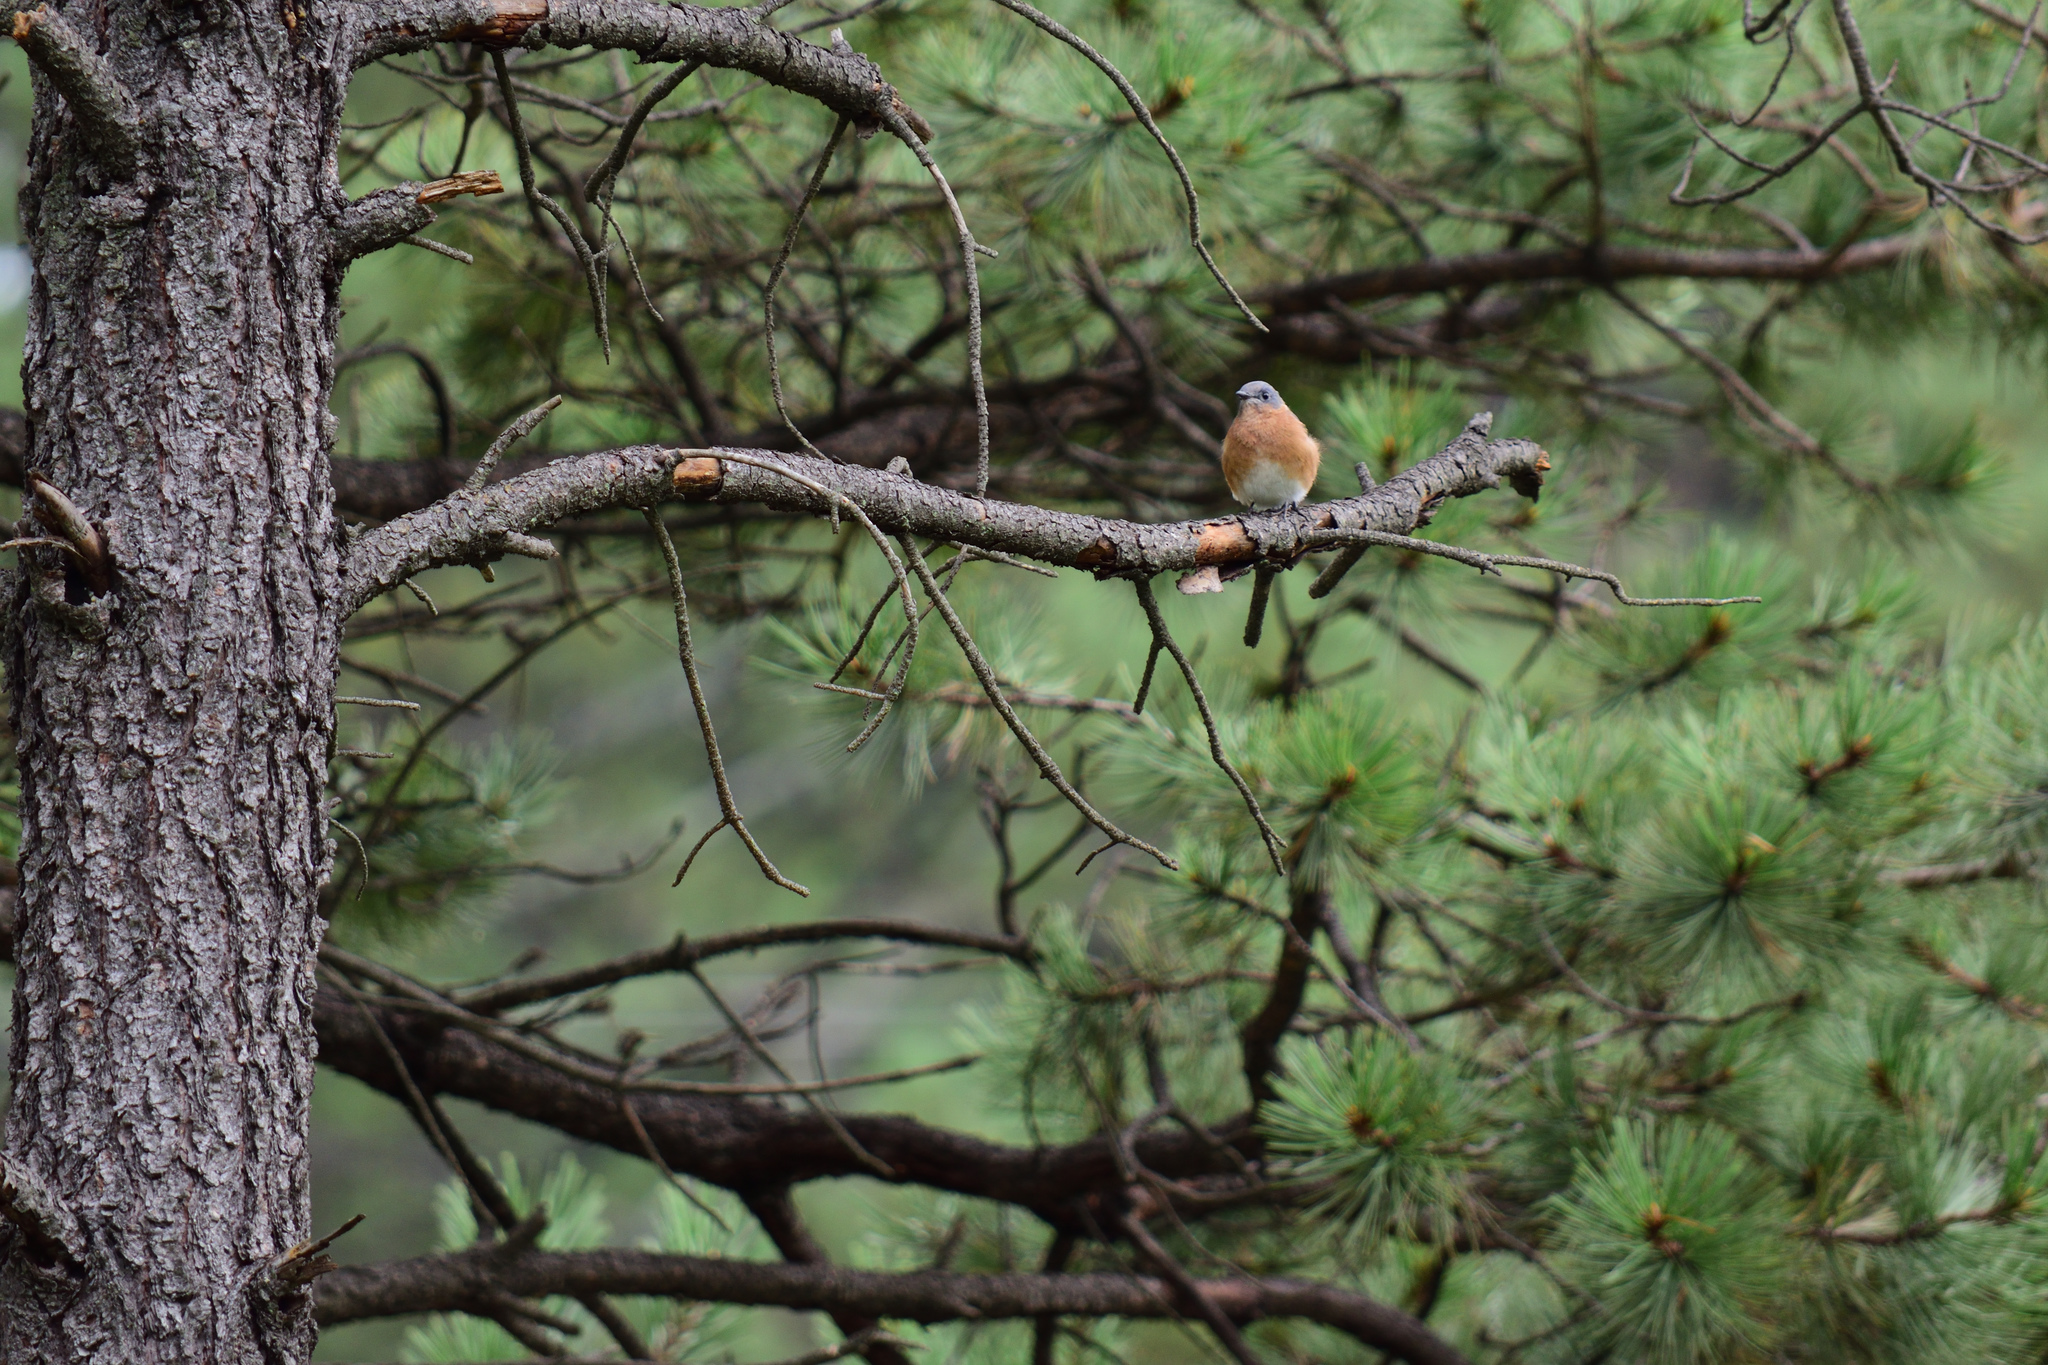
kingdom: Animalia
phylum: Chordata
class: Aves
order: Passeriformes
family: Turdidae
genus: Sialia
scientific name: Sialia sialis
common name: Eastern bluebird
